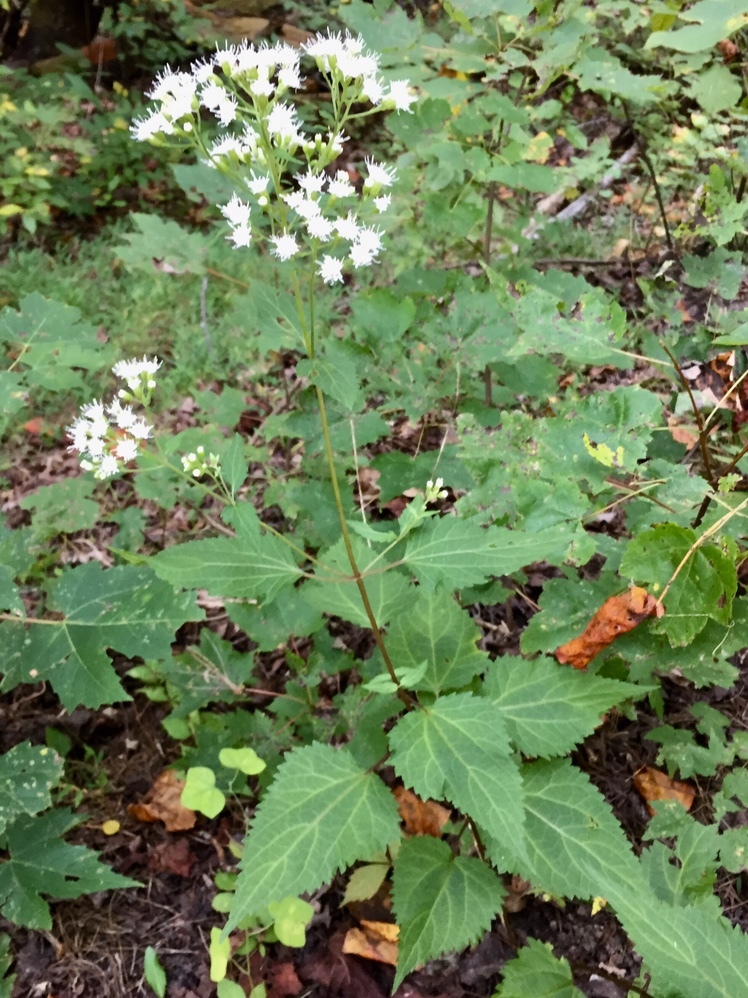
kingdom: Plantae
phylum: Tracheophyta
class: Magnoliopsida
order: Asterales
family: Asteraceae
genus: Ageratina
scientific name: Ageratina altissima
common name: White snakeroot
